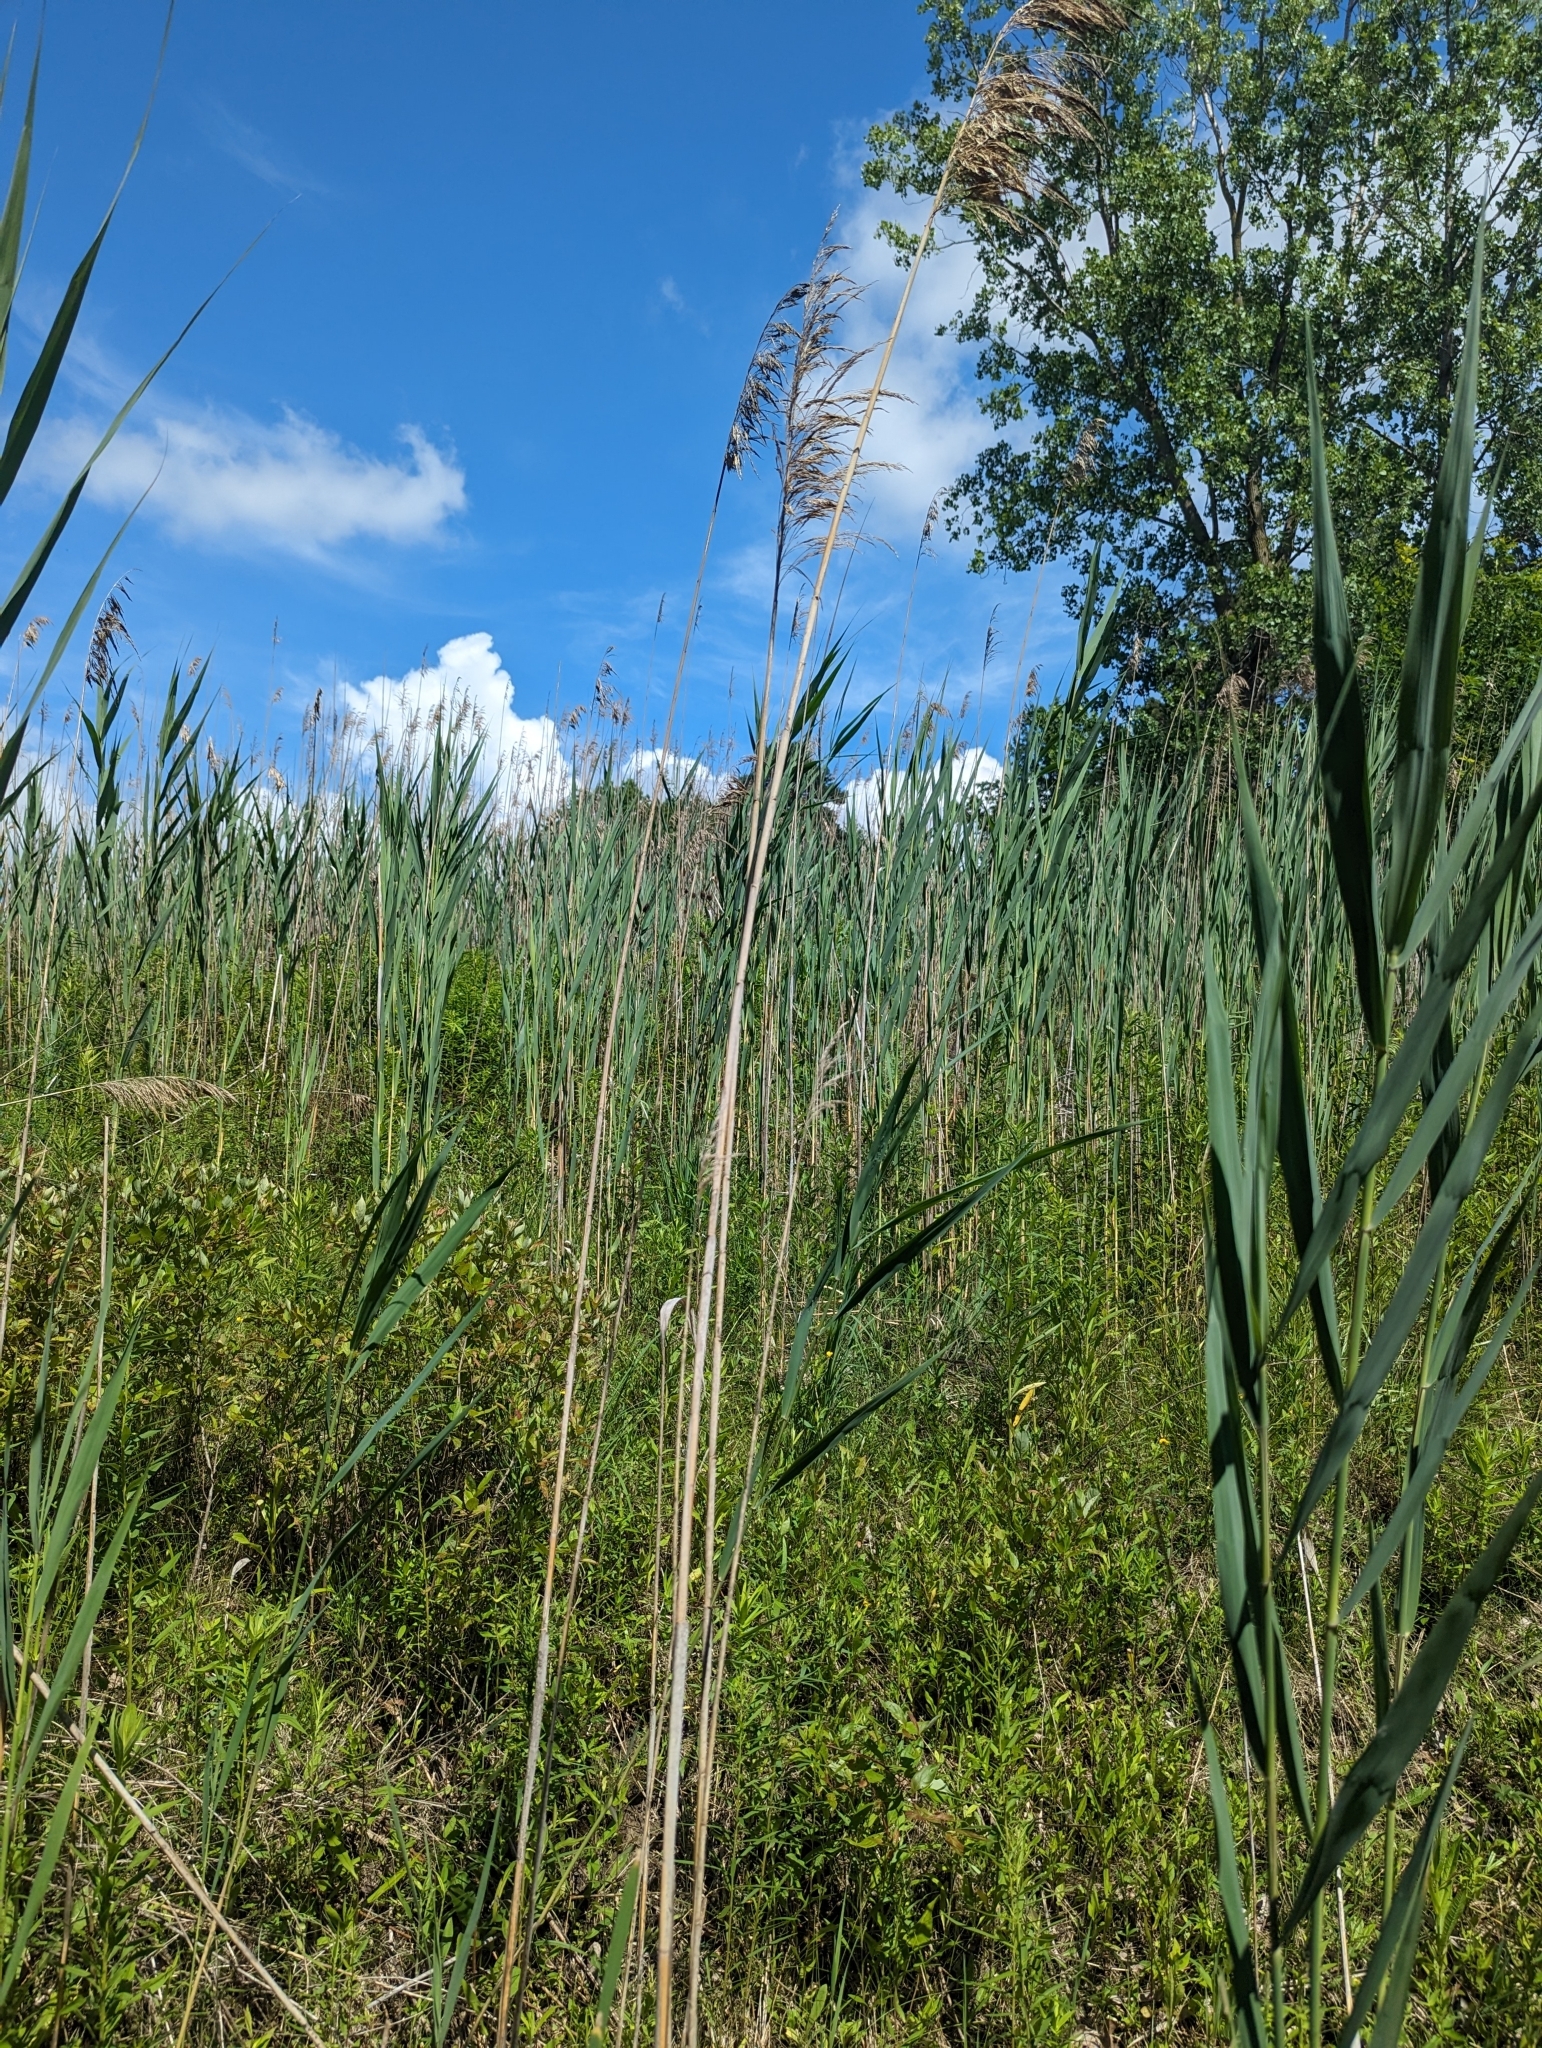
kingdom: Plantae
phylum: Tracheophyta
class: Liliopsida
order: Poales
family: Poaceae
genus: Phragmites
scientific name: Phragmites australis
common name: Common reed
